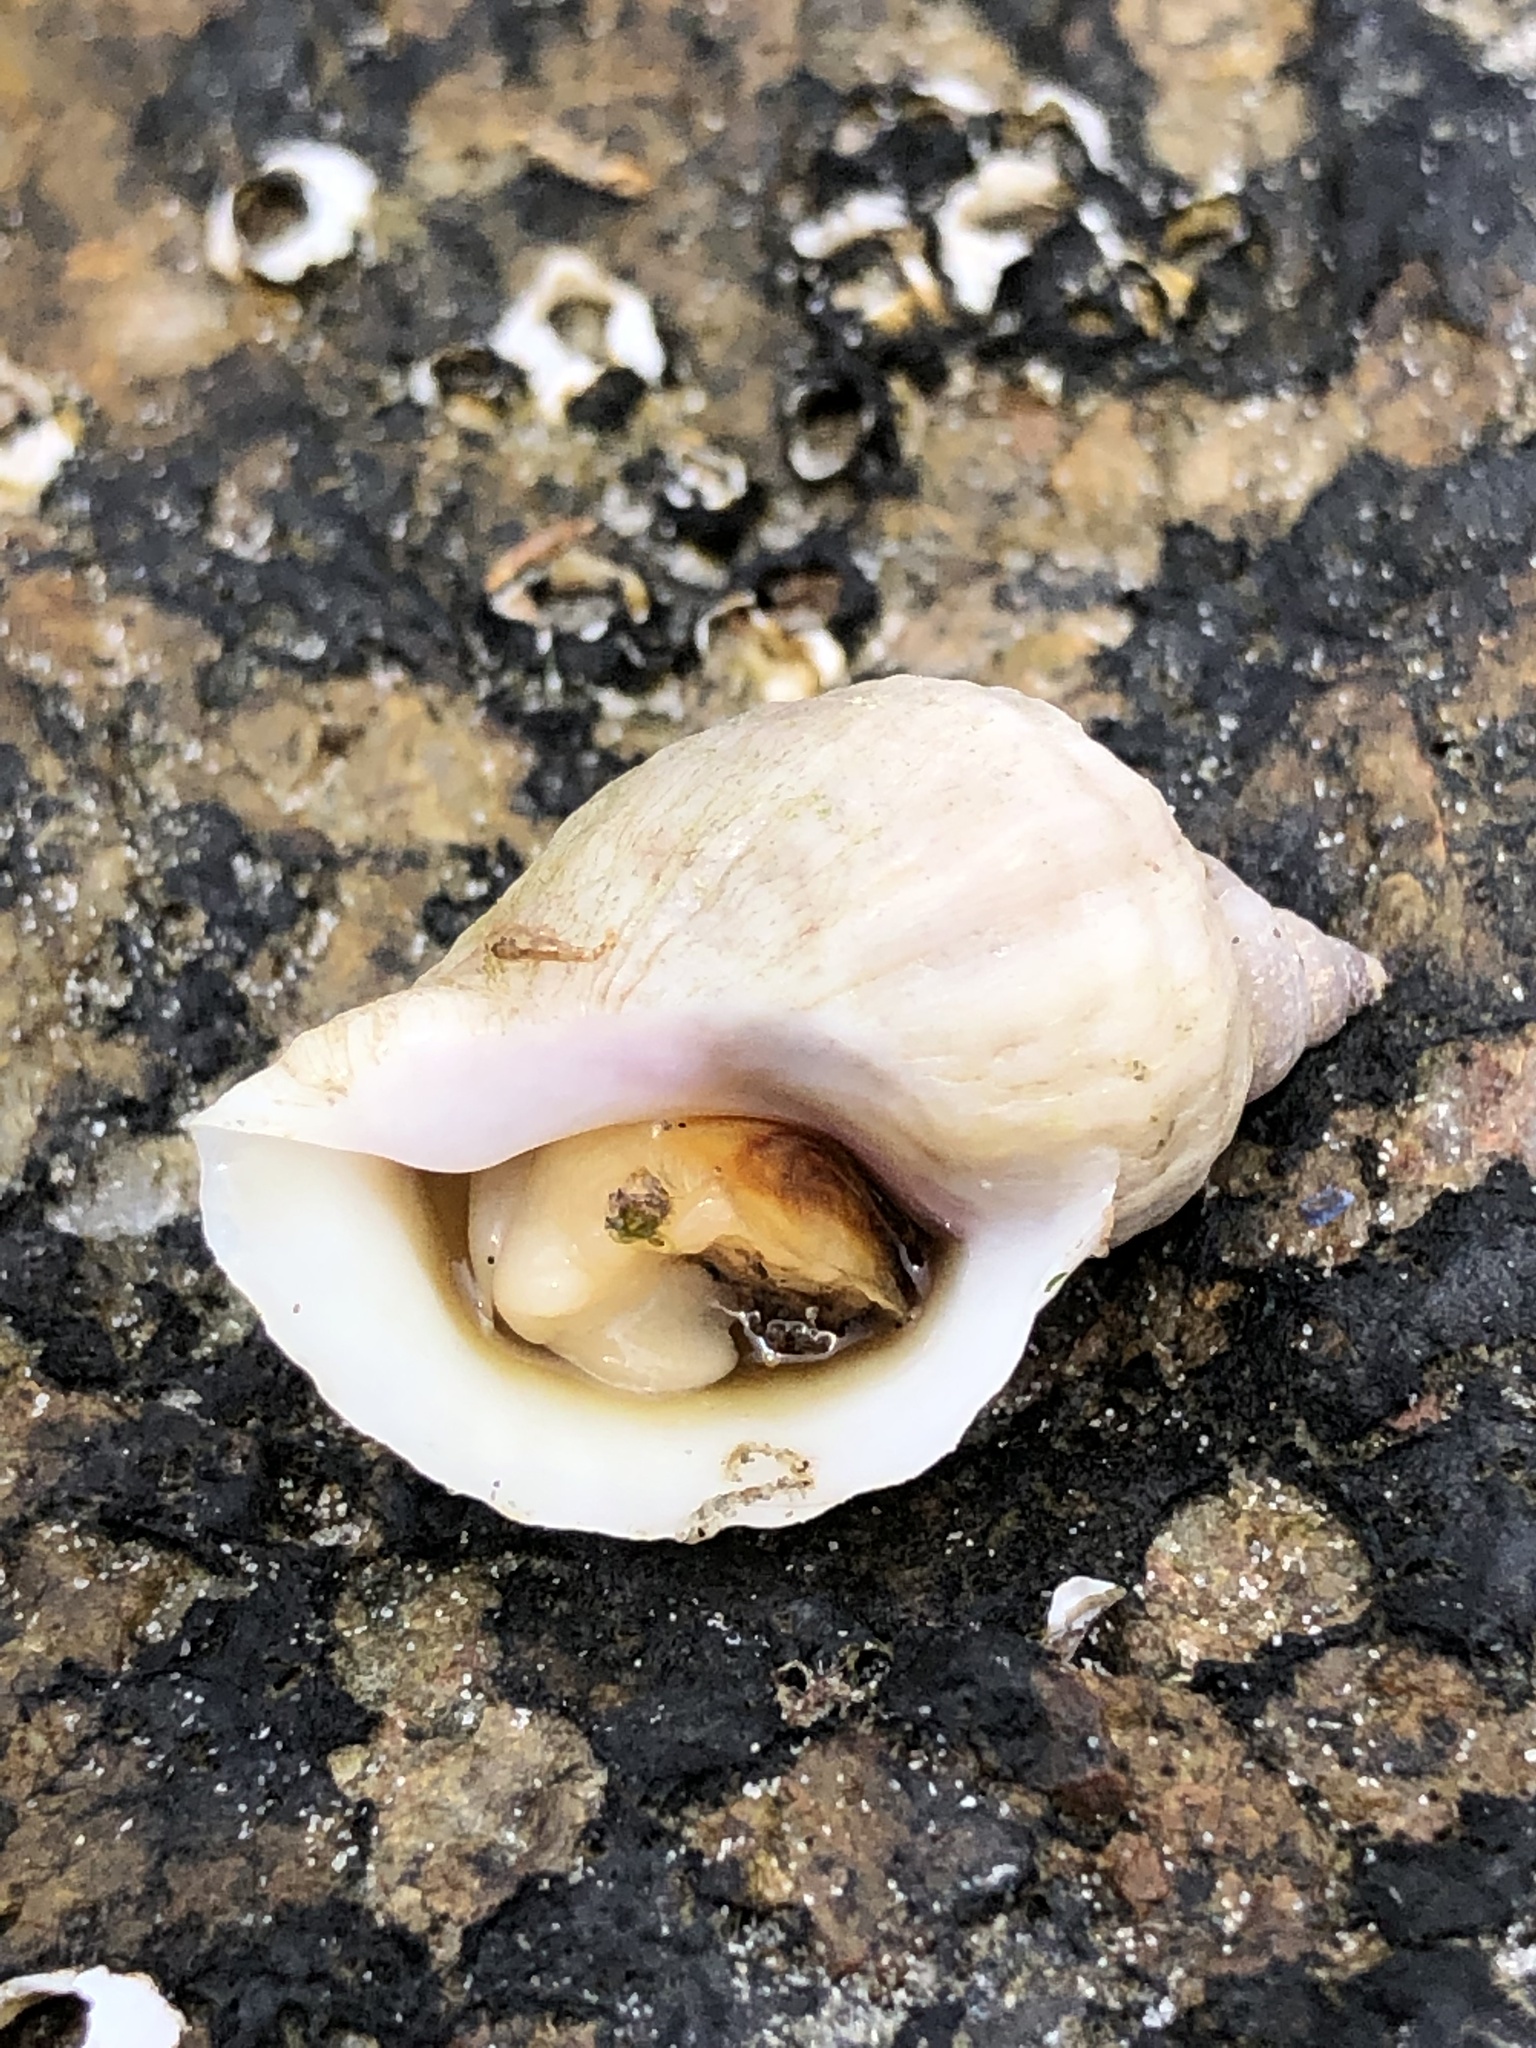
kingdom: Animalia
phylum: Mollusca
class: Gastropoda
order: Neogastropoda
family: Muricidae
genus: Nucella
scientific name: Nucella lapillus
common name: Dog whelk
